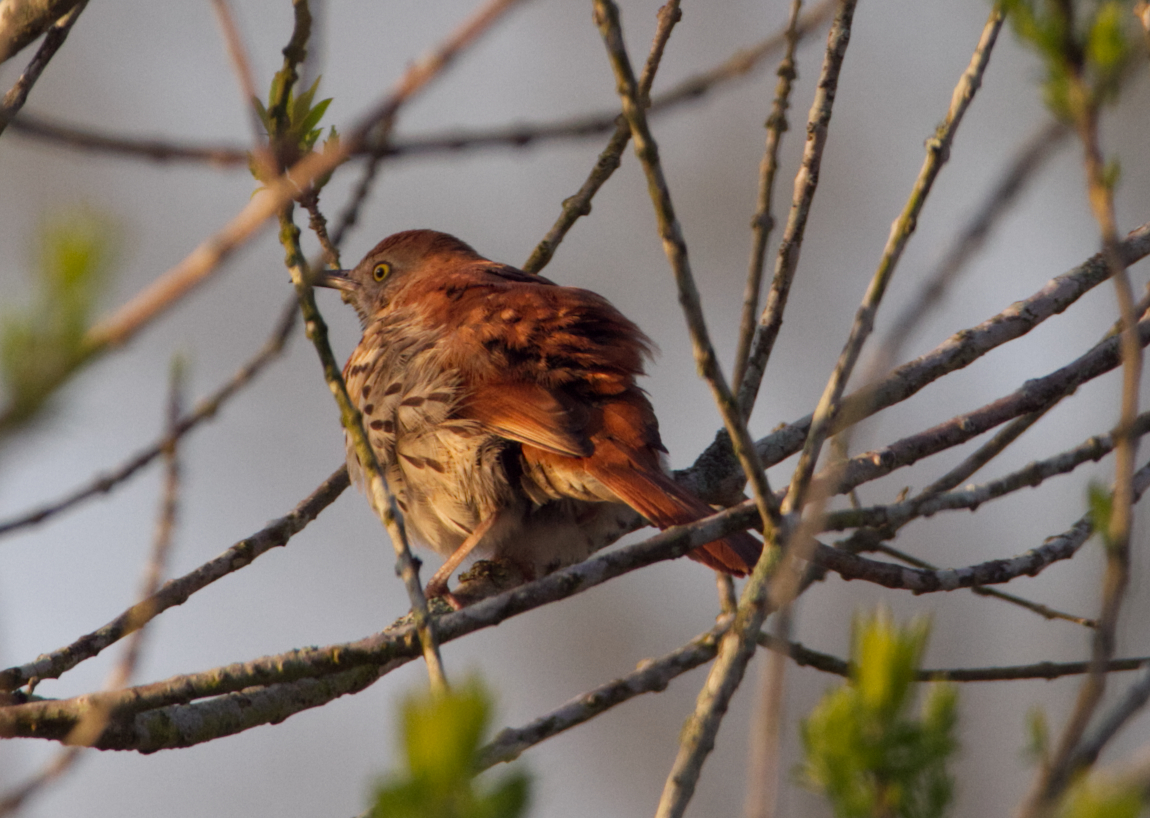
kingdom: Animalia
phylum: Chordata
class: Aves
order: Passeriformes
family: Mimidae
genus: Toxostoma
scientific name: Toxostoma rufum
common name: Brown thrasher
